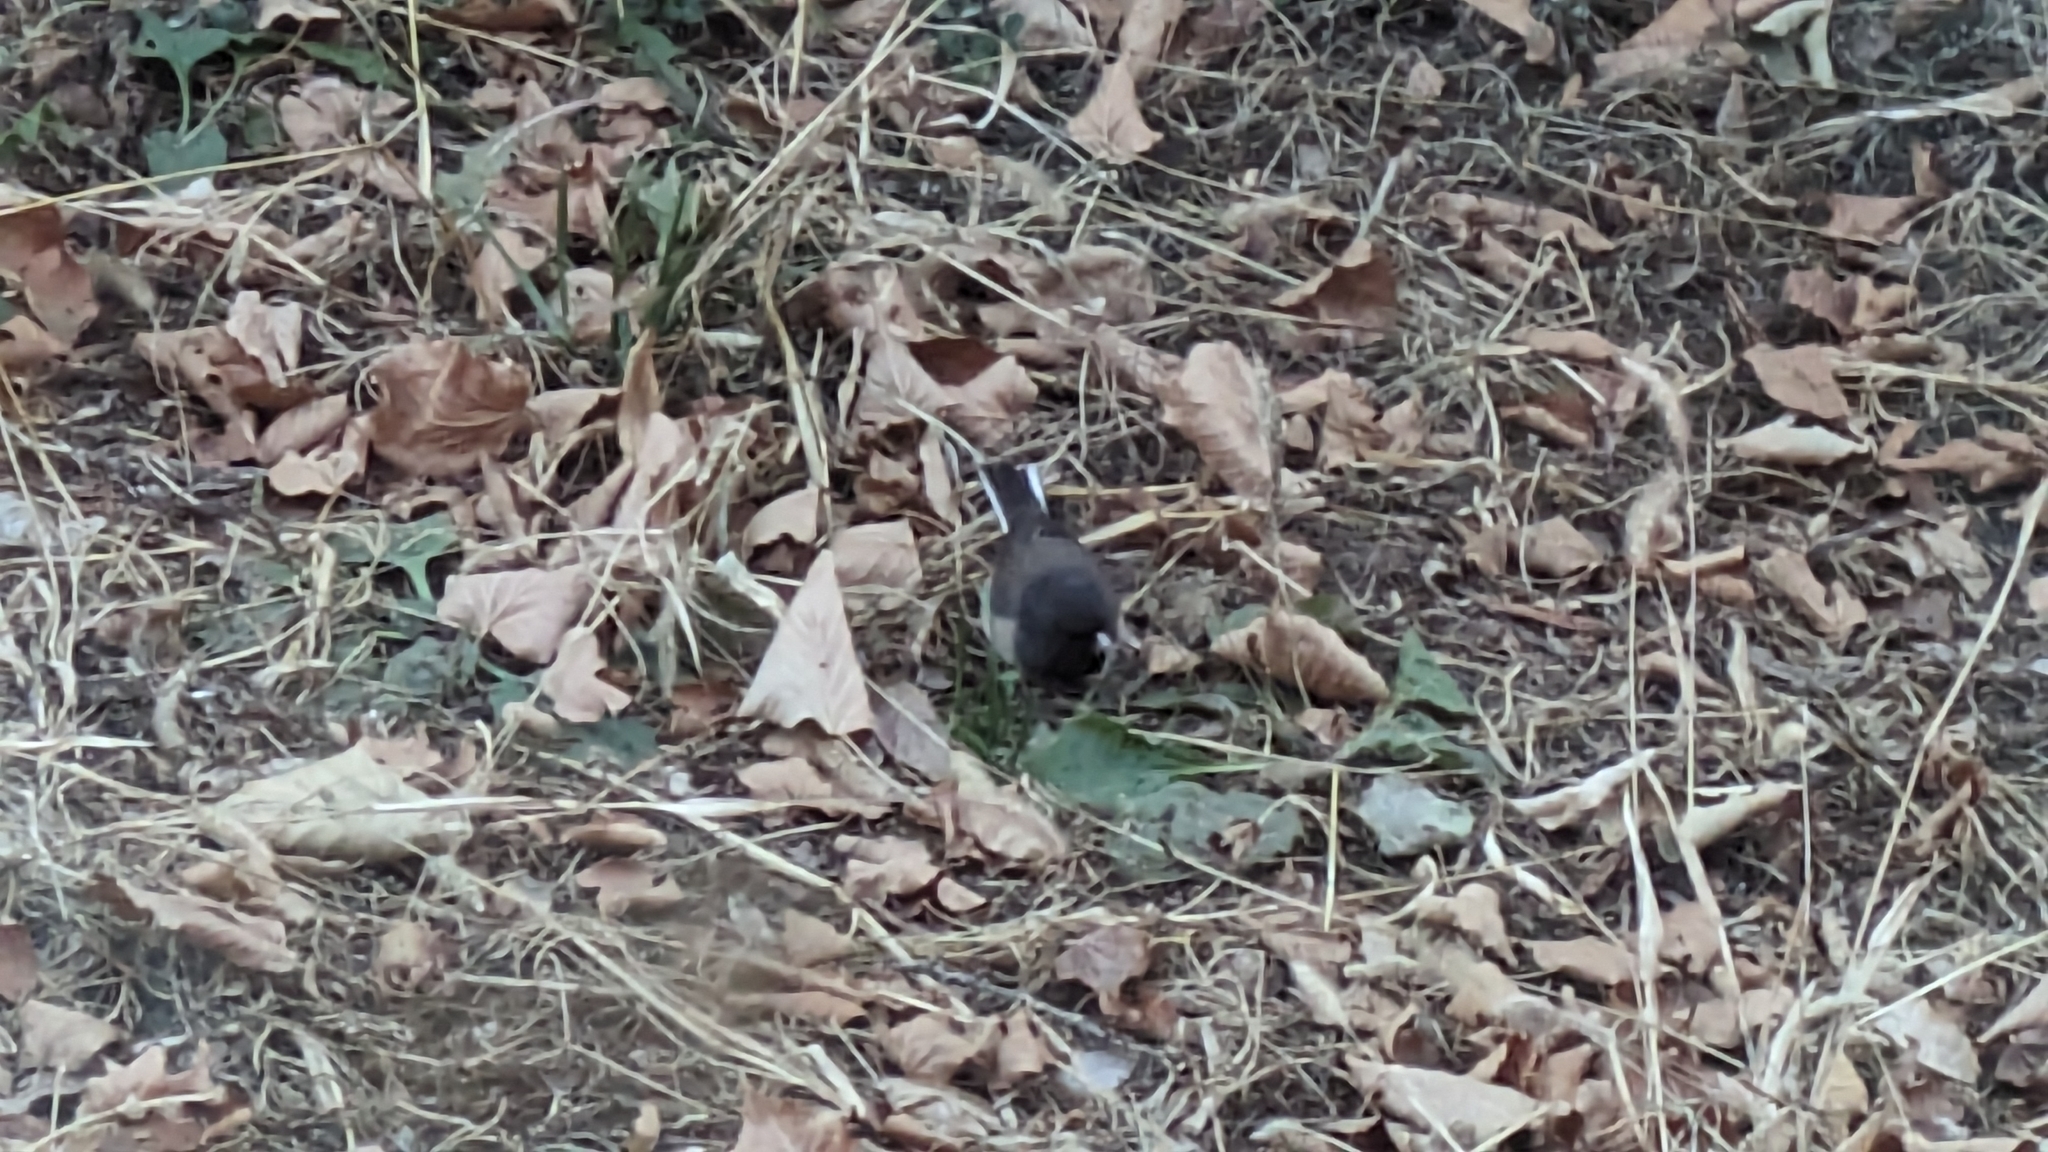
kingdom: Animalia
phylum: Chordata
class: Aves
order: Passeriformes
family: Passerellidae
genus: Junco
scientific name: Junco hyemalis
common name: Dark-eyed junco
